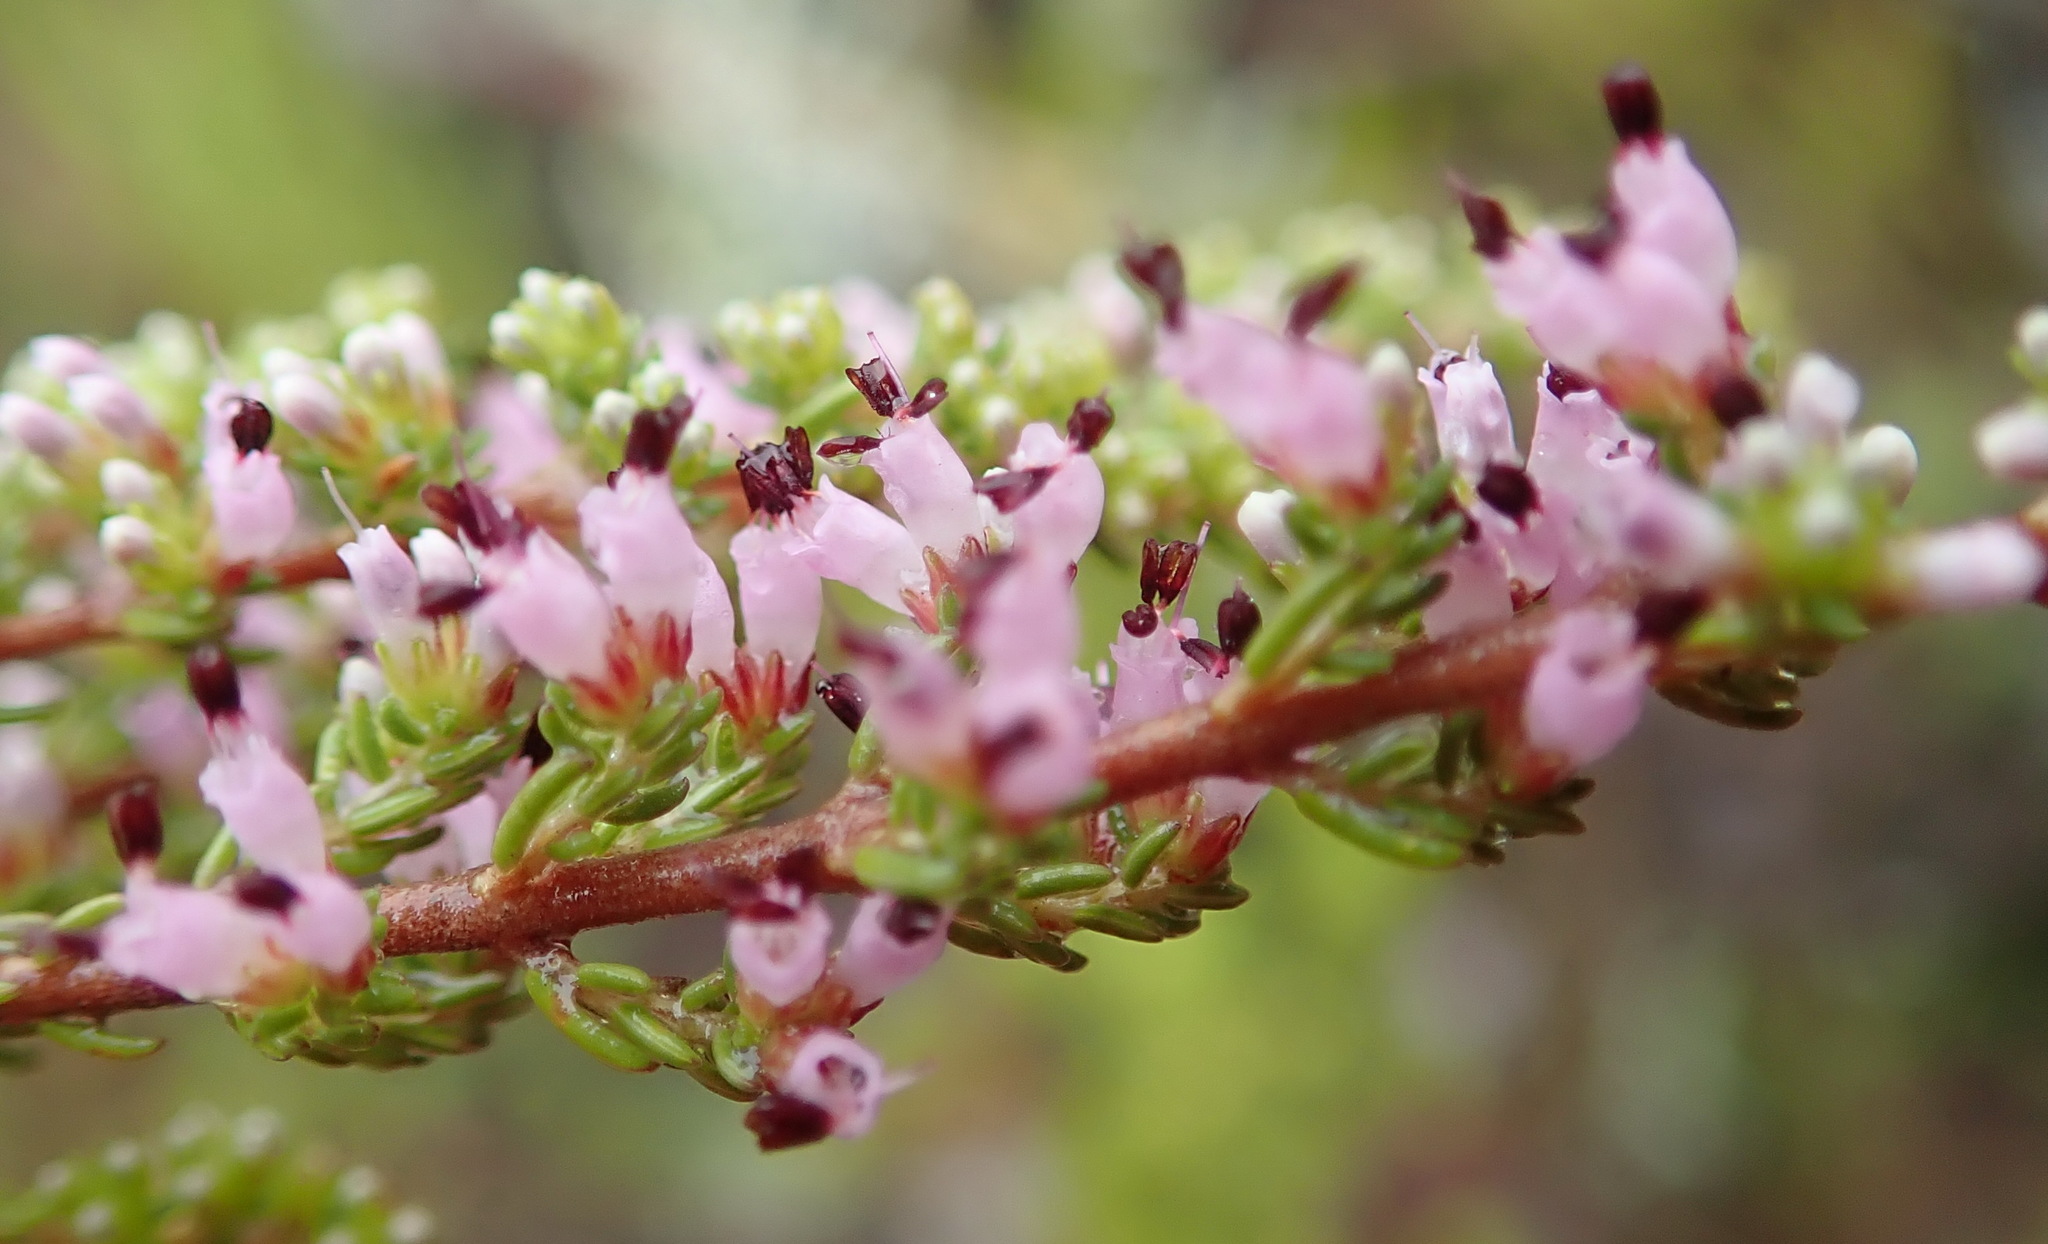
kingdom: Plantae
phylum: Tracheophyta
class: Magnoliopsida
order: Ericales
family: Ericaceae
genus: Erica
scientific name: Erica anguliger
